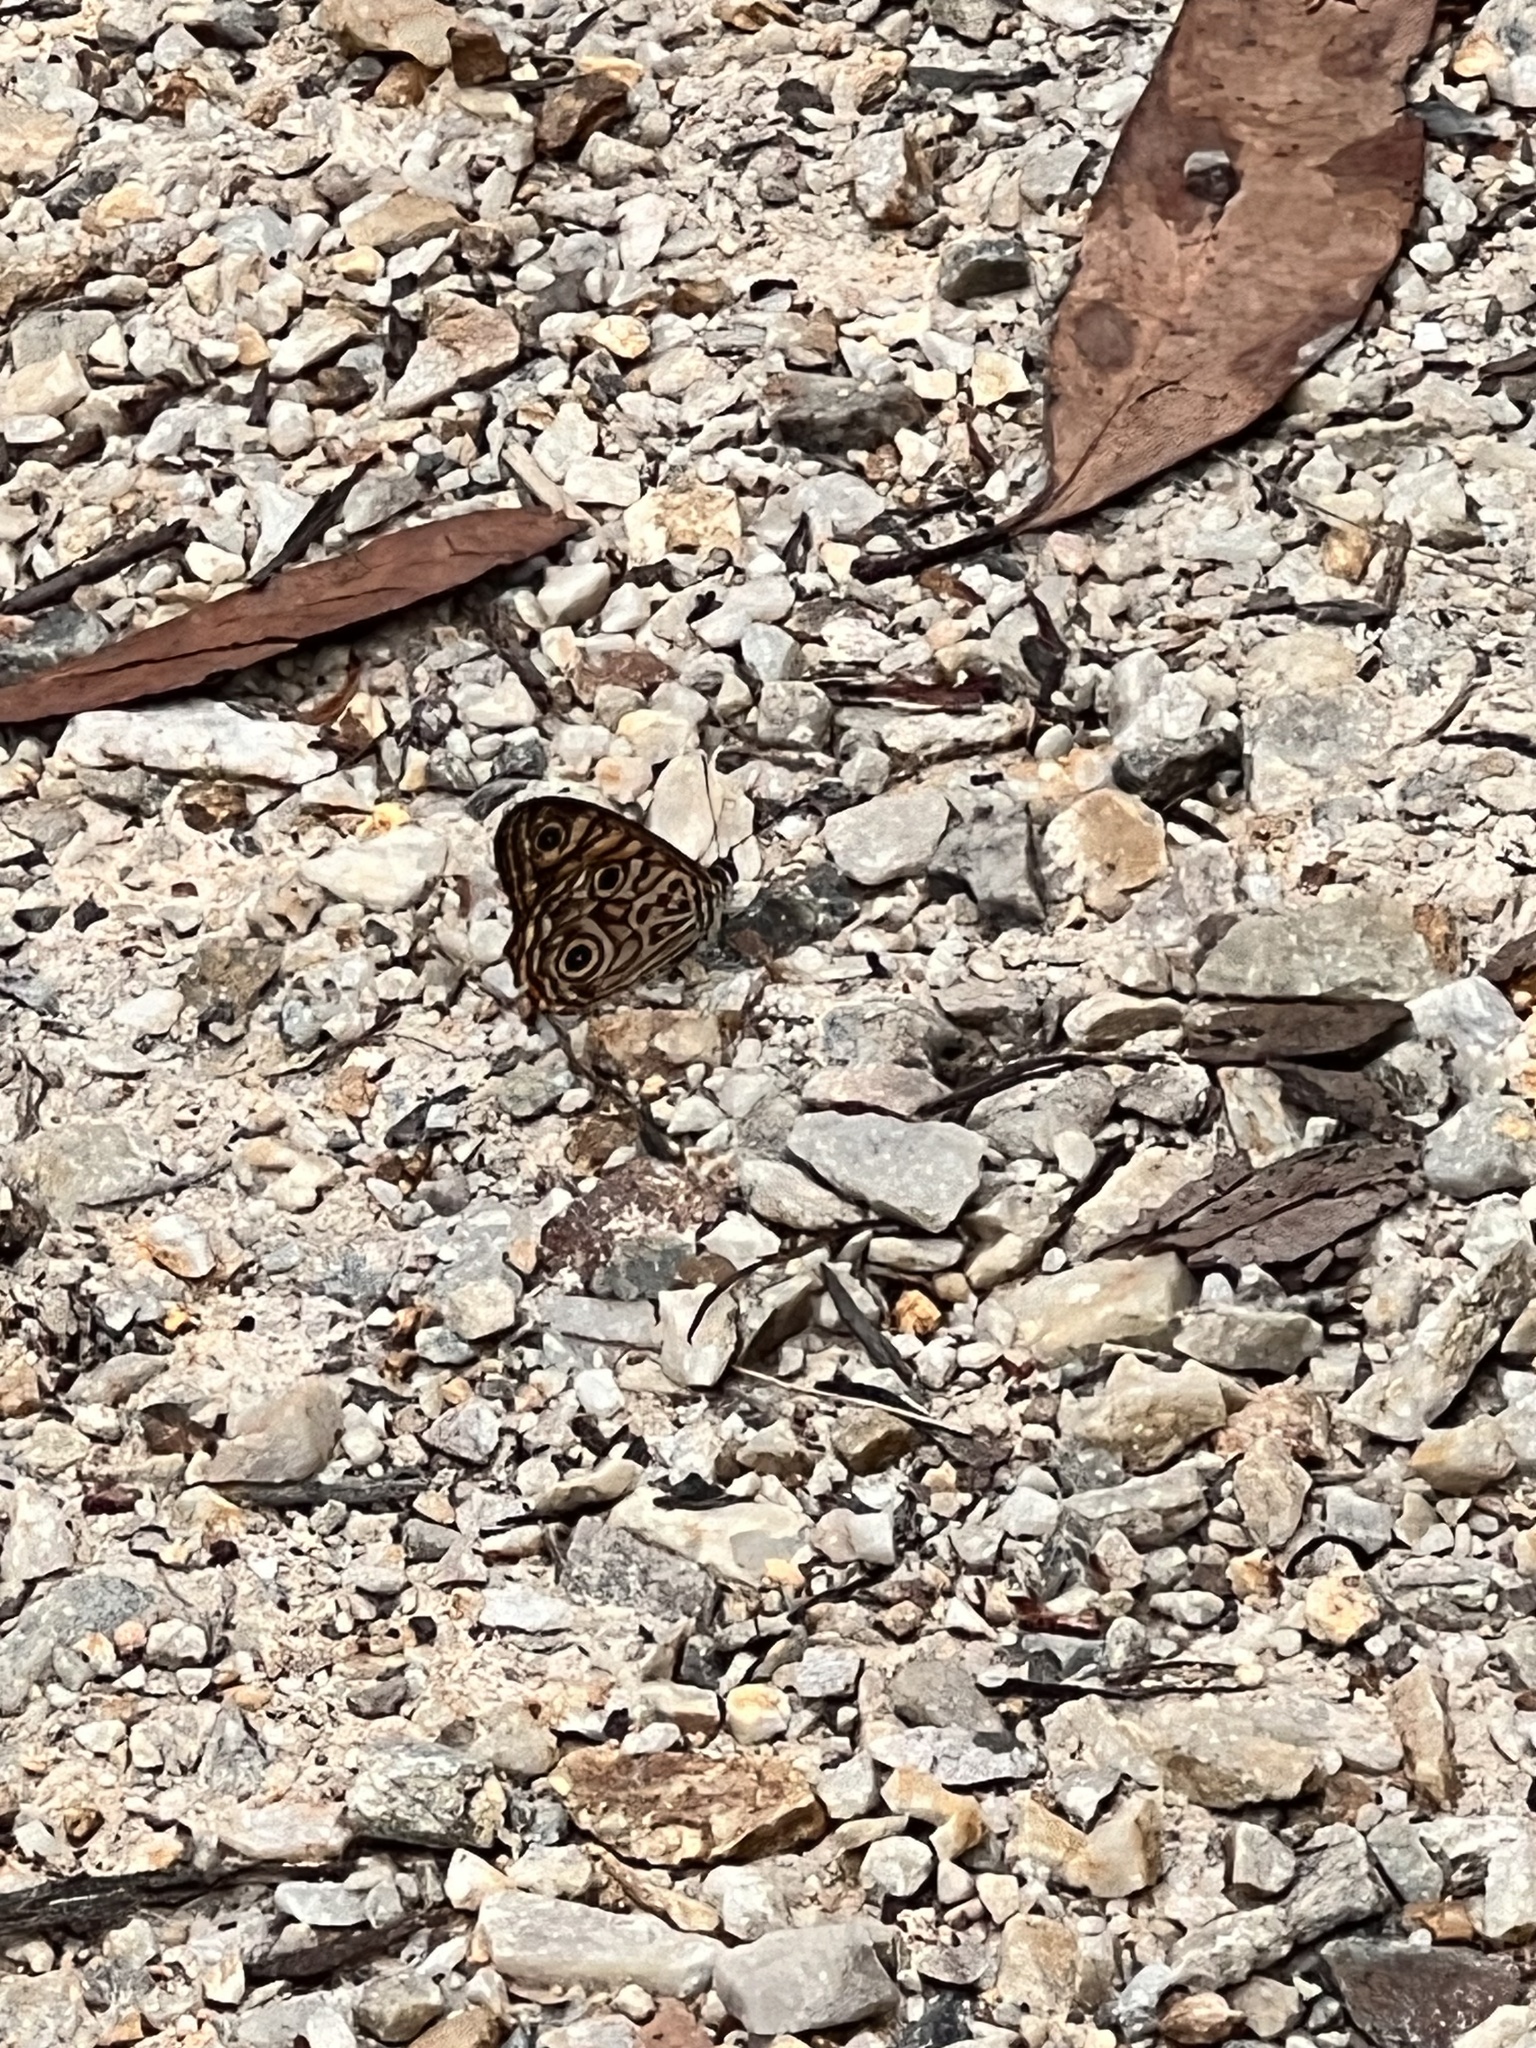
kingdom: Animalia
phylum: Arthropoda
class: Insecta
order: Lepidoptera
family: Nymphalidae
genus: Geitoneura
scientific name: Geitoneura acantha
